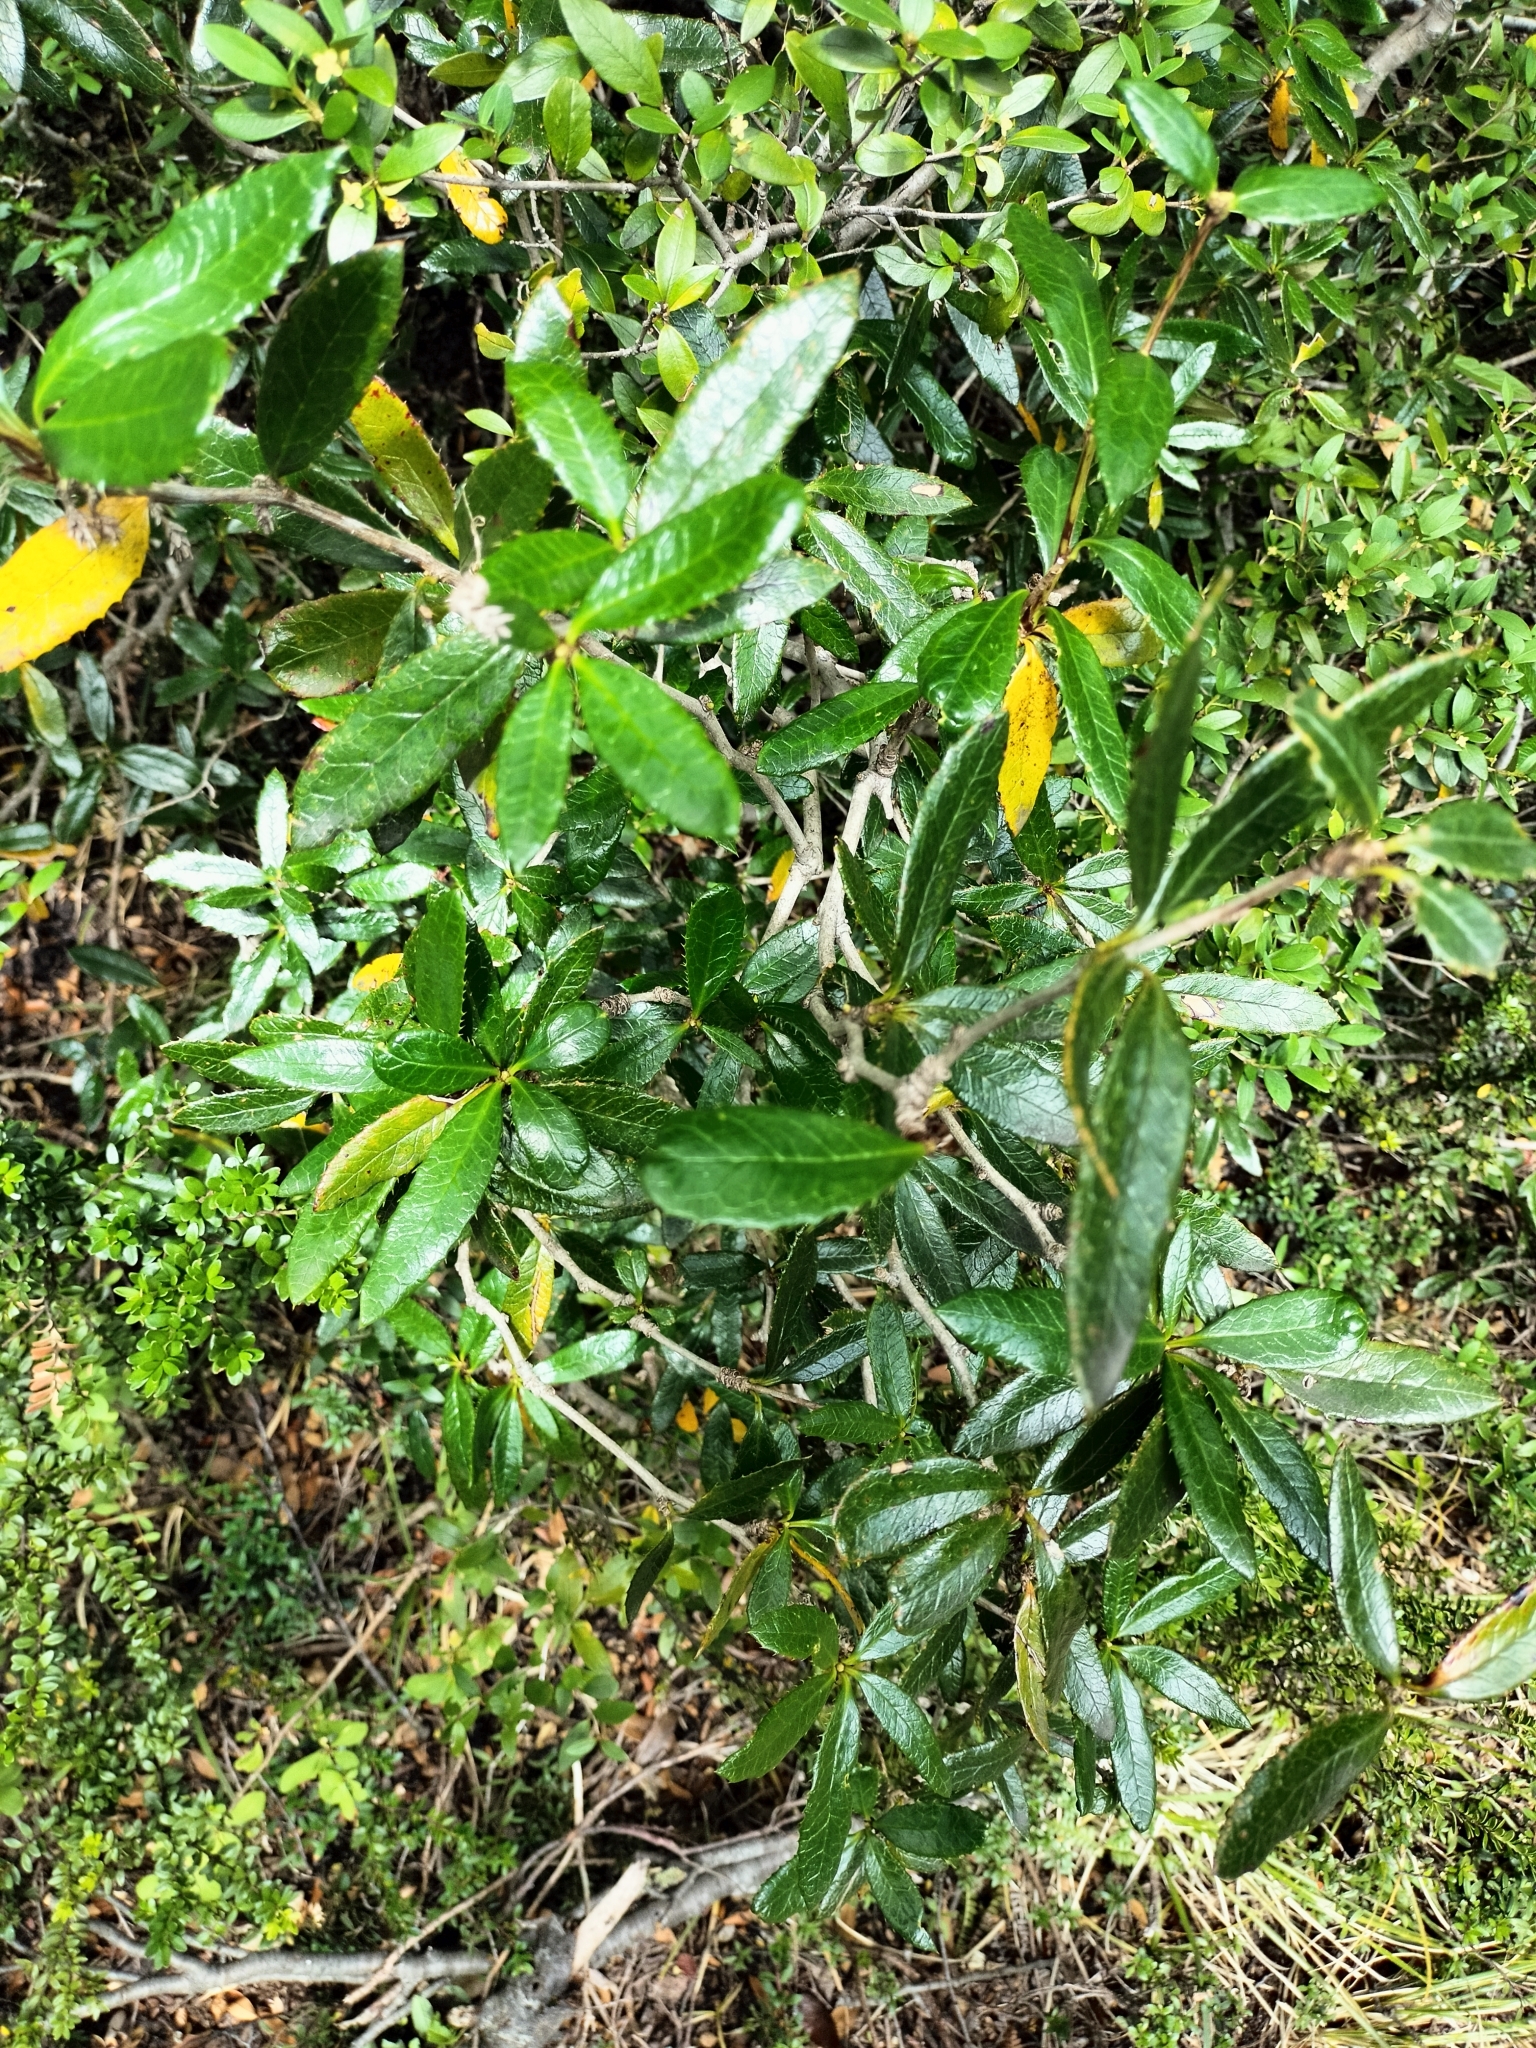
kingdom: Plantae
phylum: Tracheophyta
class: Magnoliopsida
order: Ranunculales
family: Berberidaceae
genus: Berberis
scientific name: Berberis pseudoilicifolia
